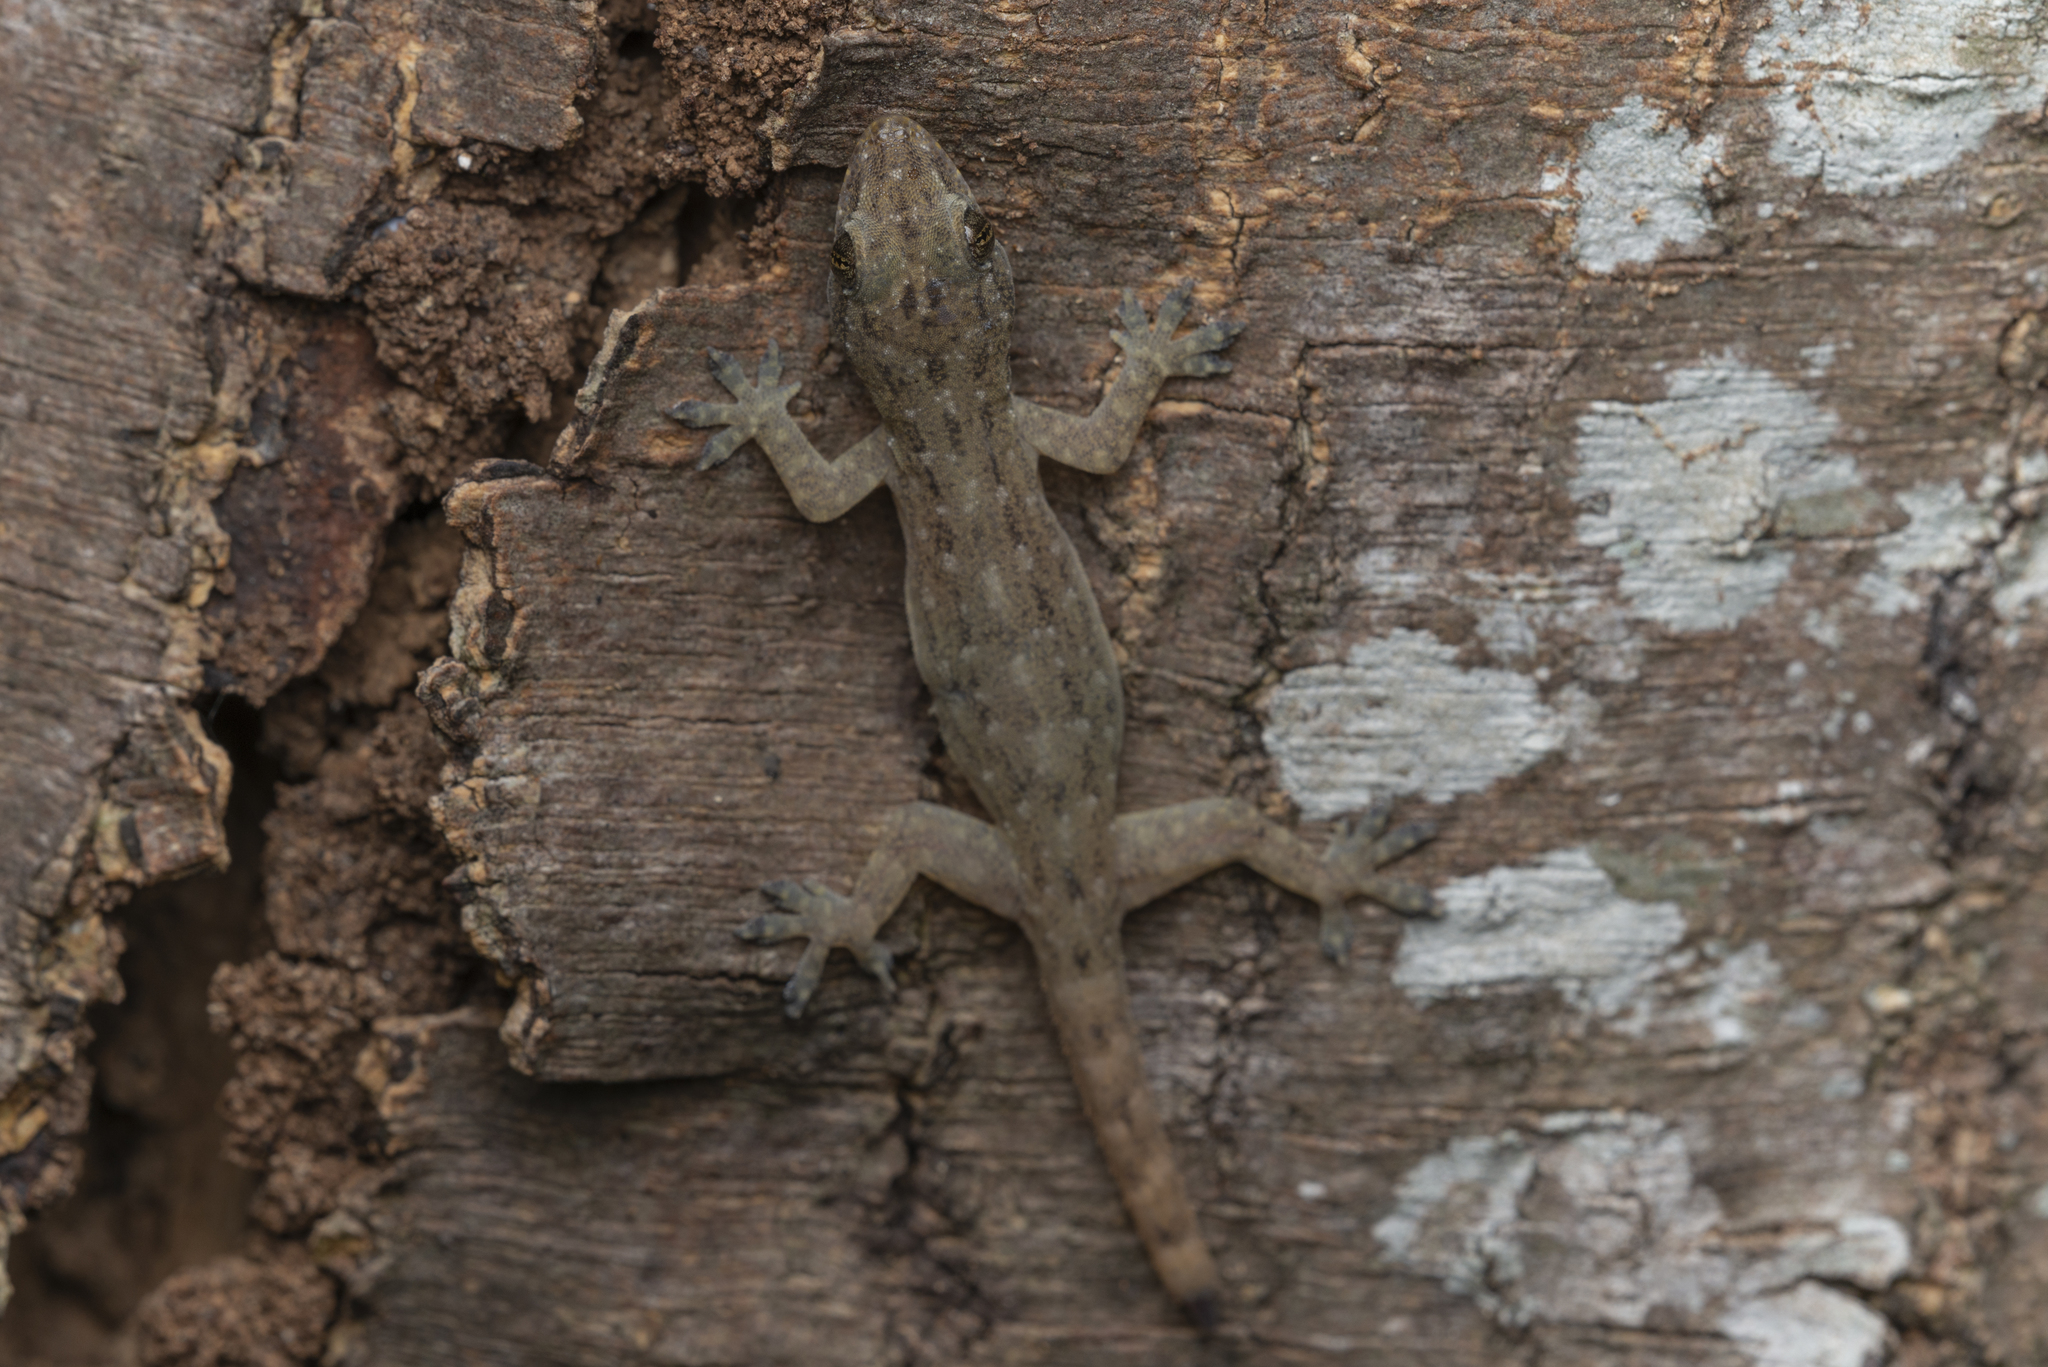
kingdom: Animalia
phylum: Chordata
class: Squamata
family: Gekkonidae
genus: Hemidactylus
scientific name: Hemidactylus garnotii
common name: Indo-pacific gecko
